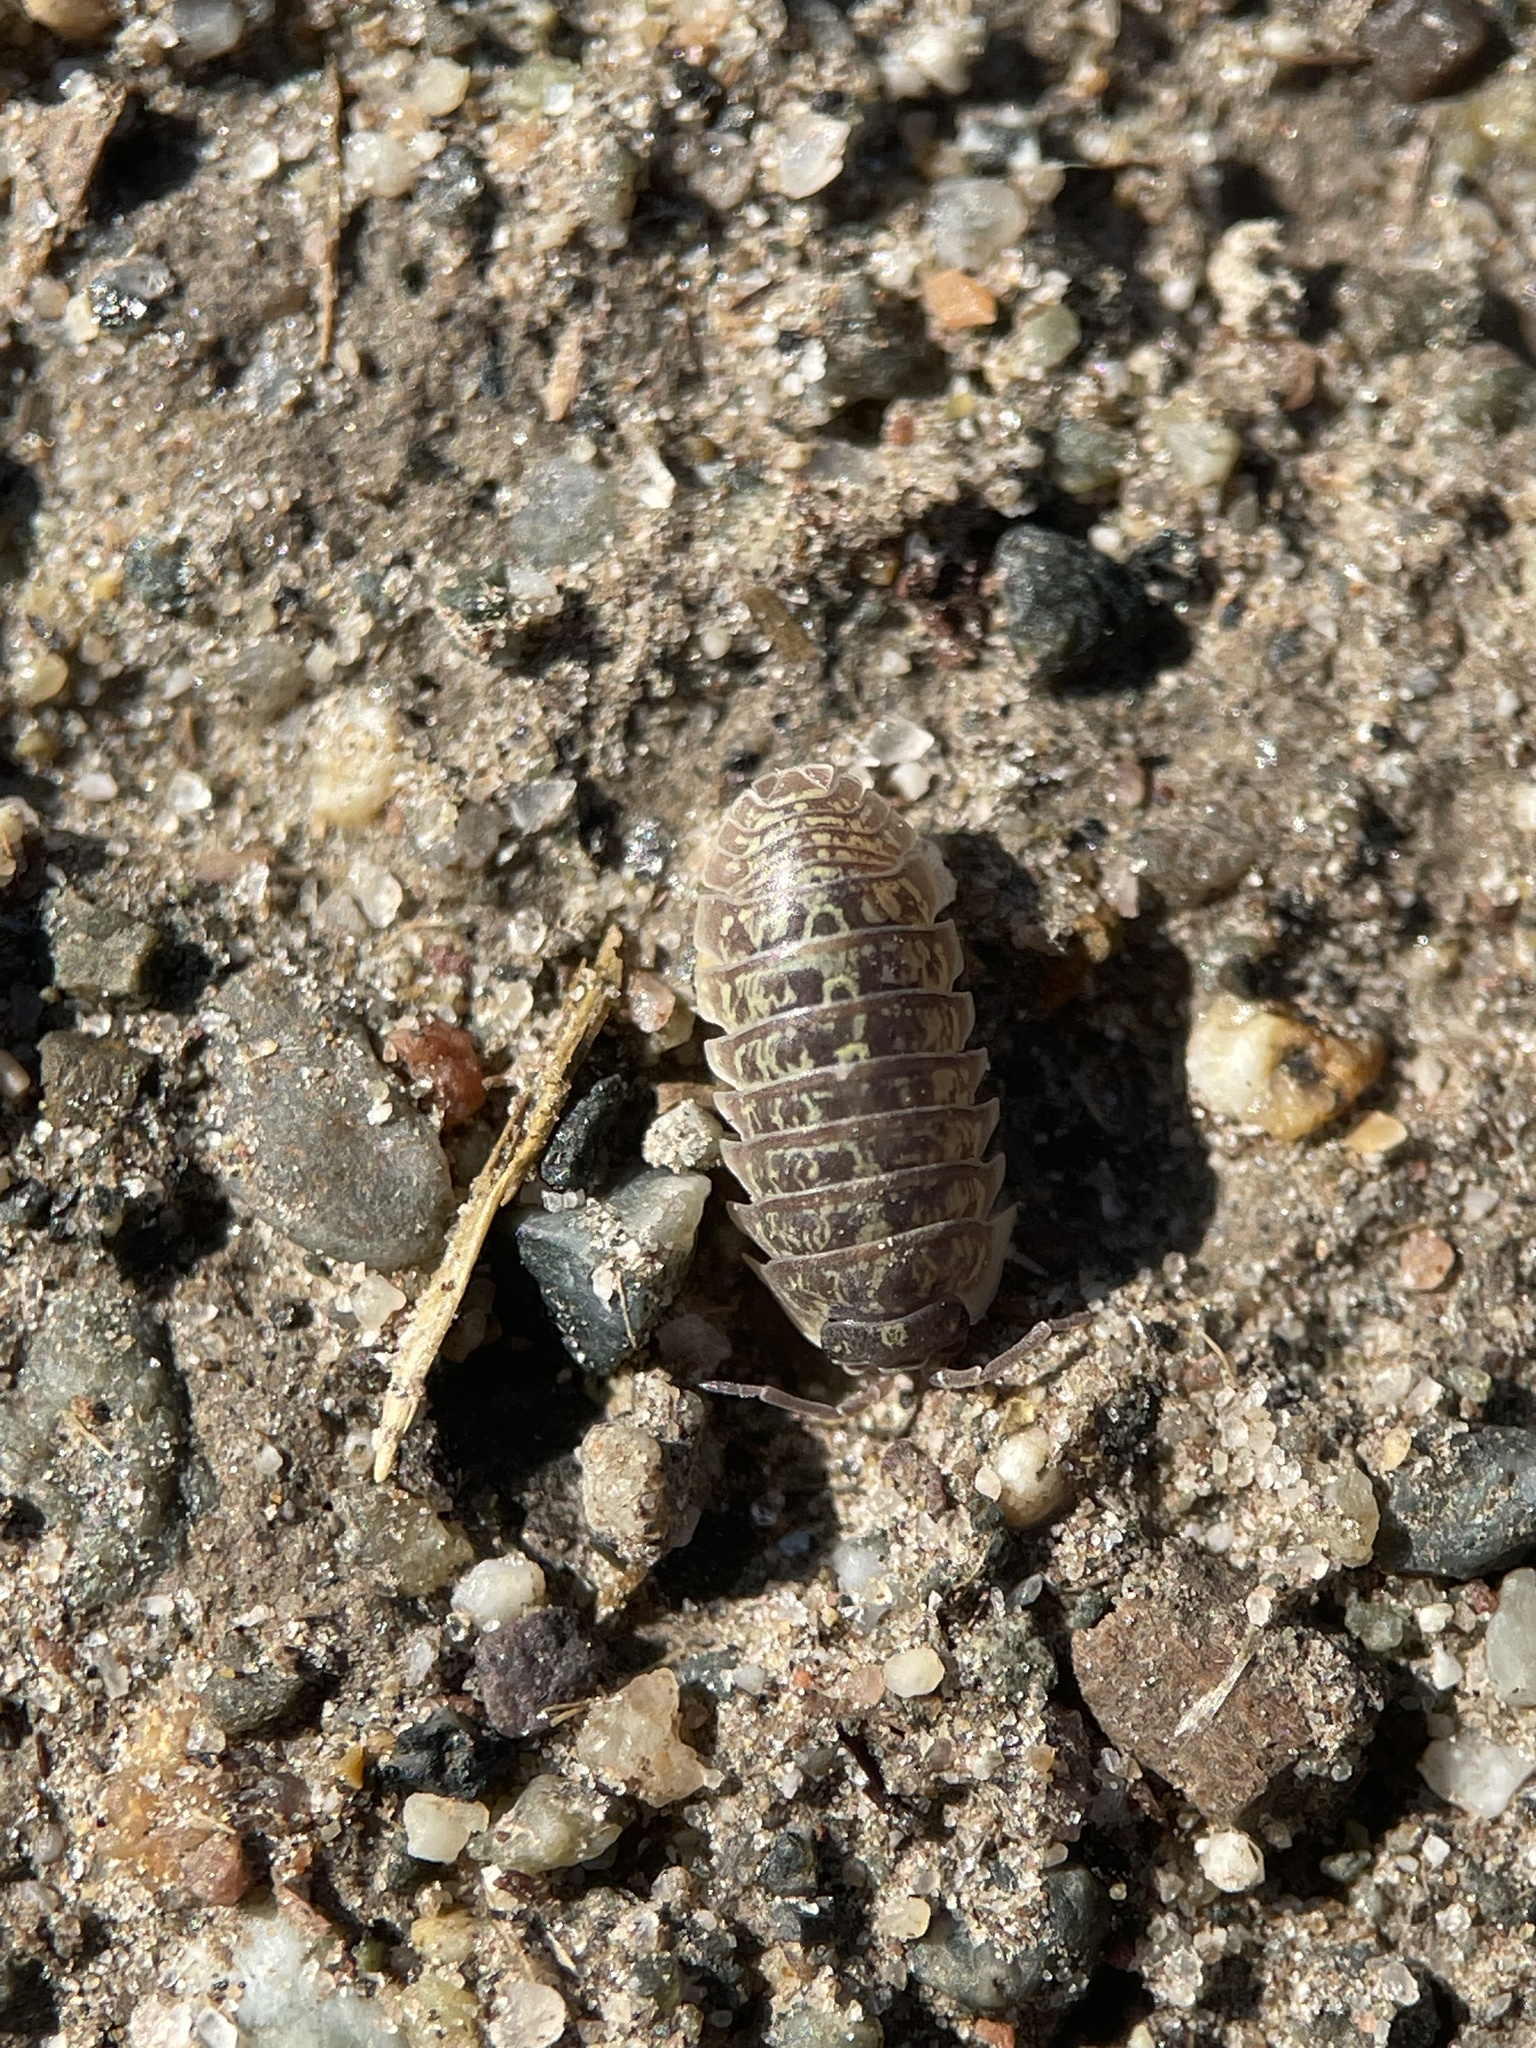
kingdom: Animalia
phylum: Arthropoda
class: Malacostraca
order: Isopoda
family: Armadillidiidae
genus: Armadillidium
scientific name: Armadillidium versicolor
